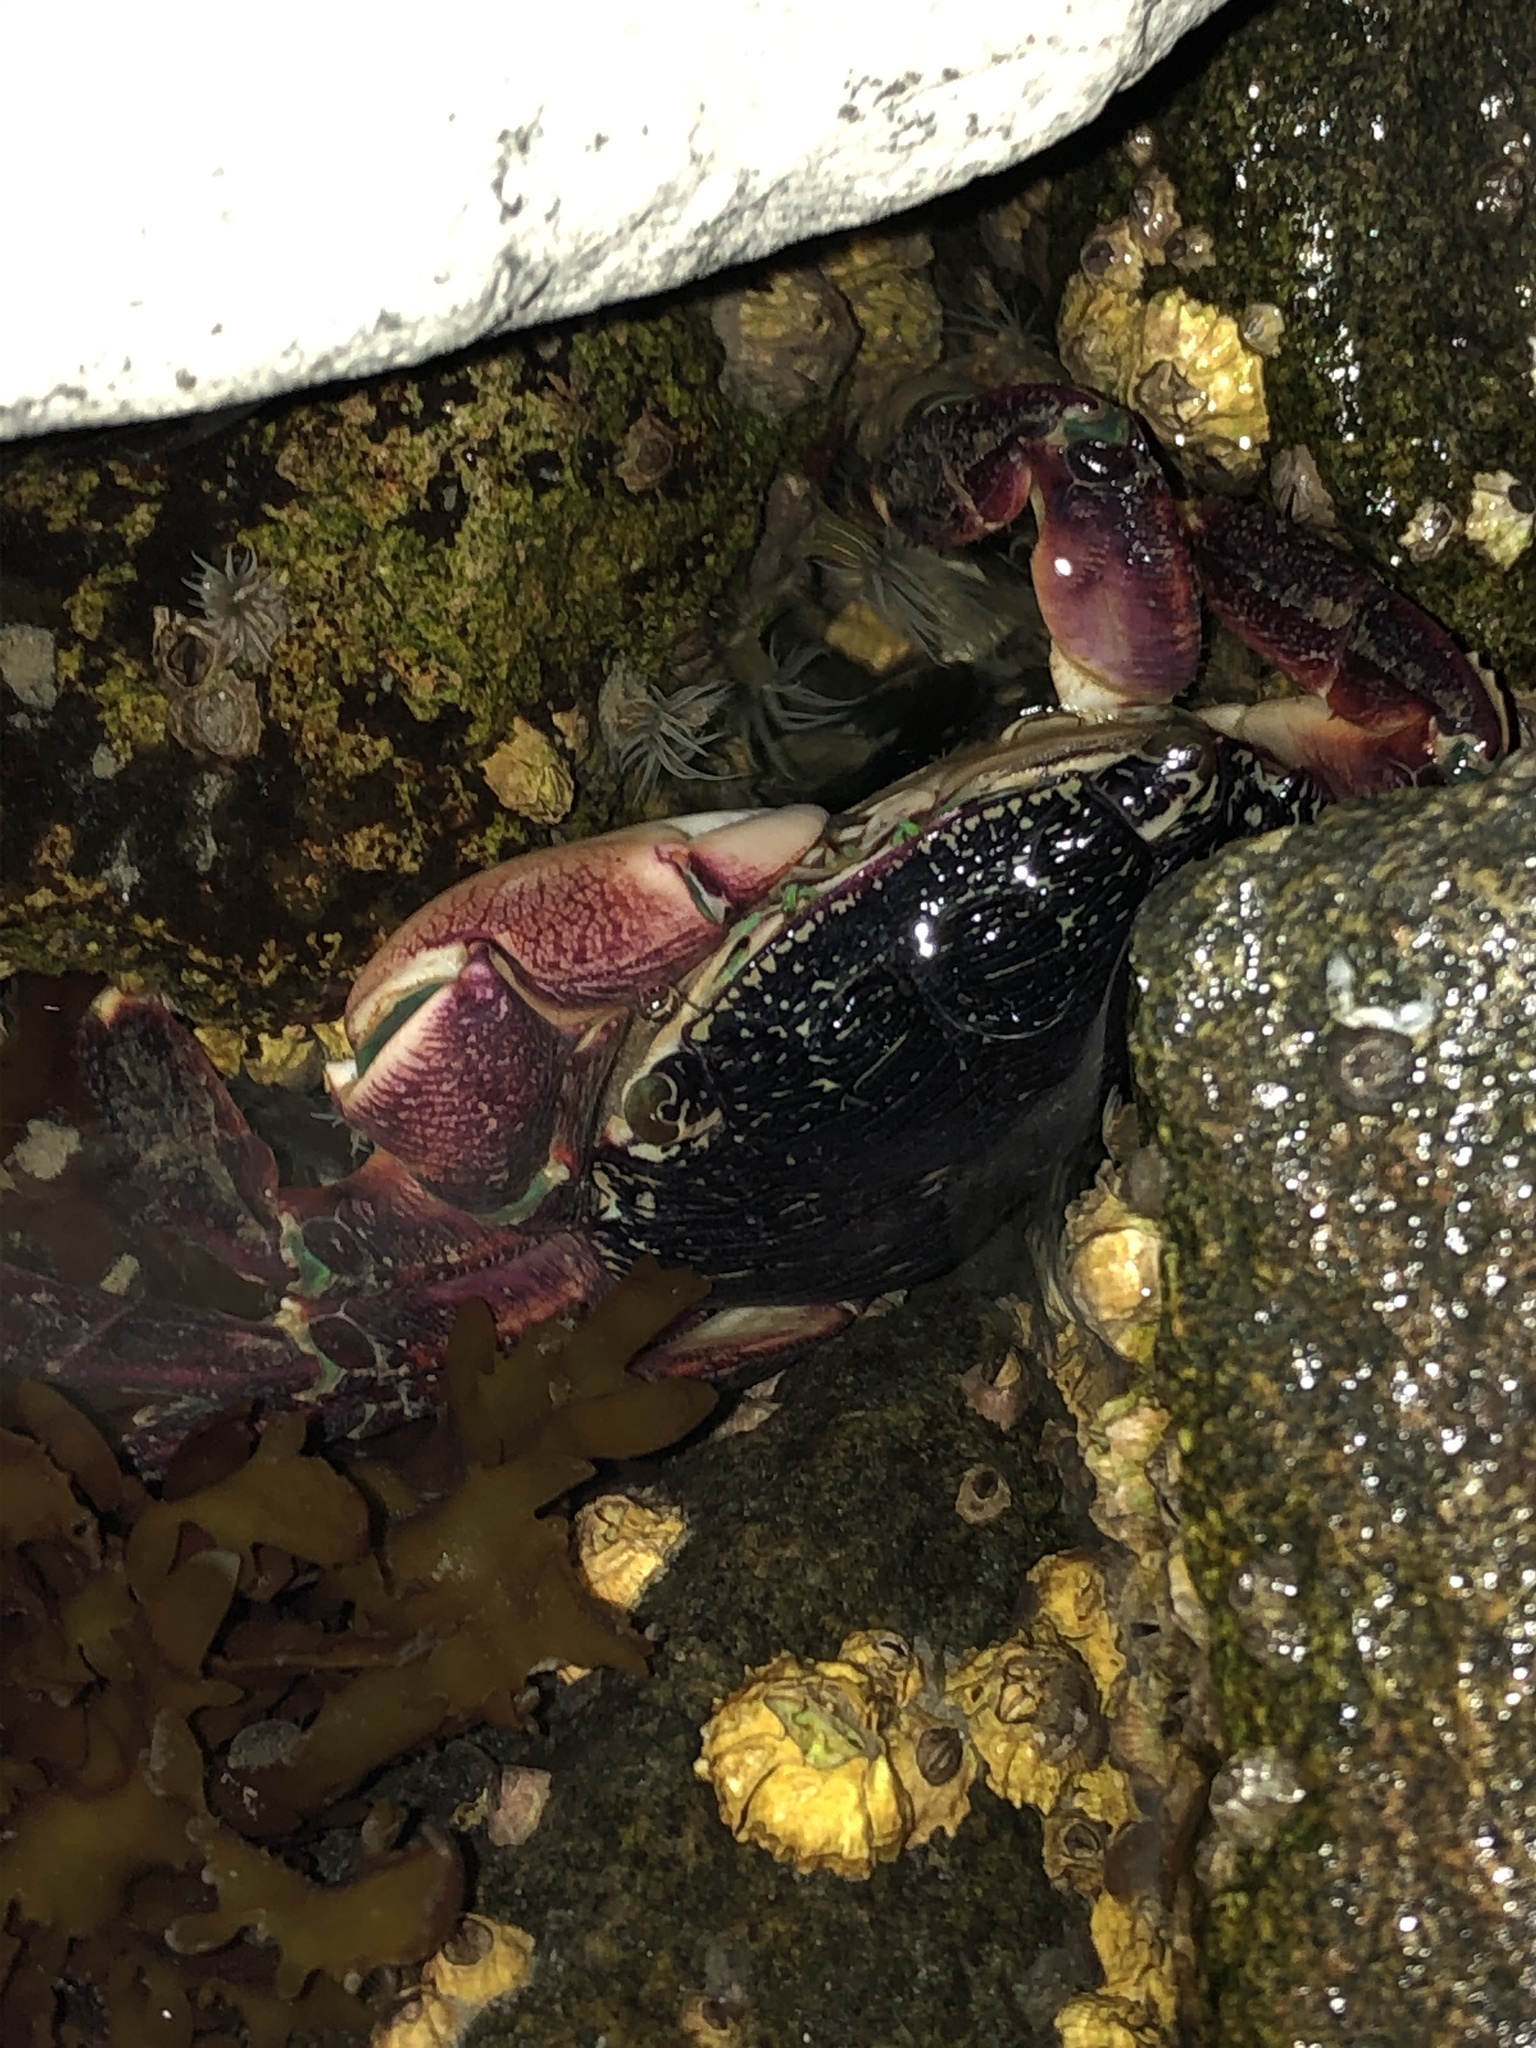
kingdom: Animalia
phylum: Arthropoda
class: Malacostraca
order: Decapoda
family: Grapsidae
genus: Pachygrapsus
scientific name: Pachygrapsus crassipes
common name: Striped shore crab
